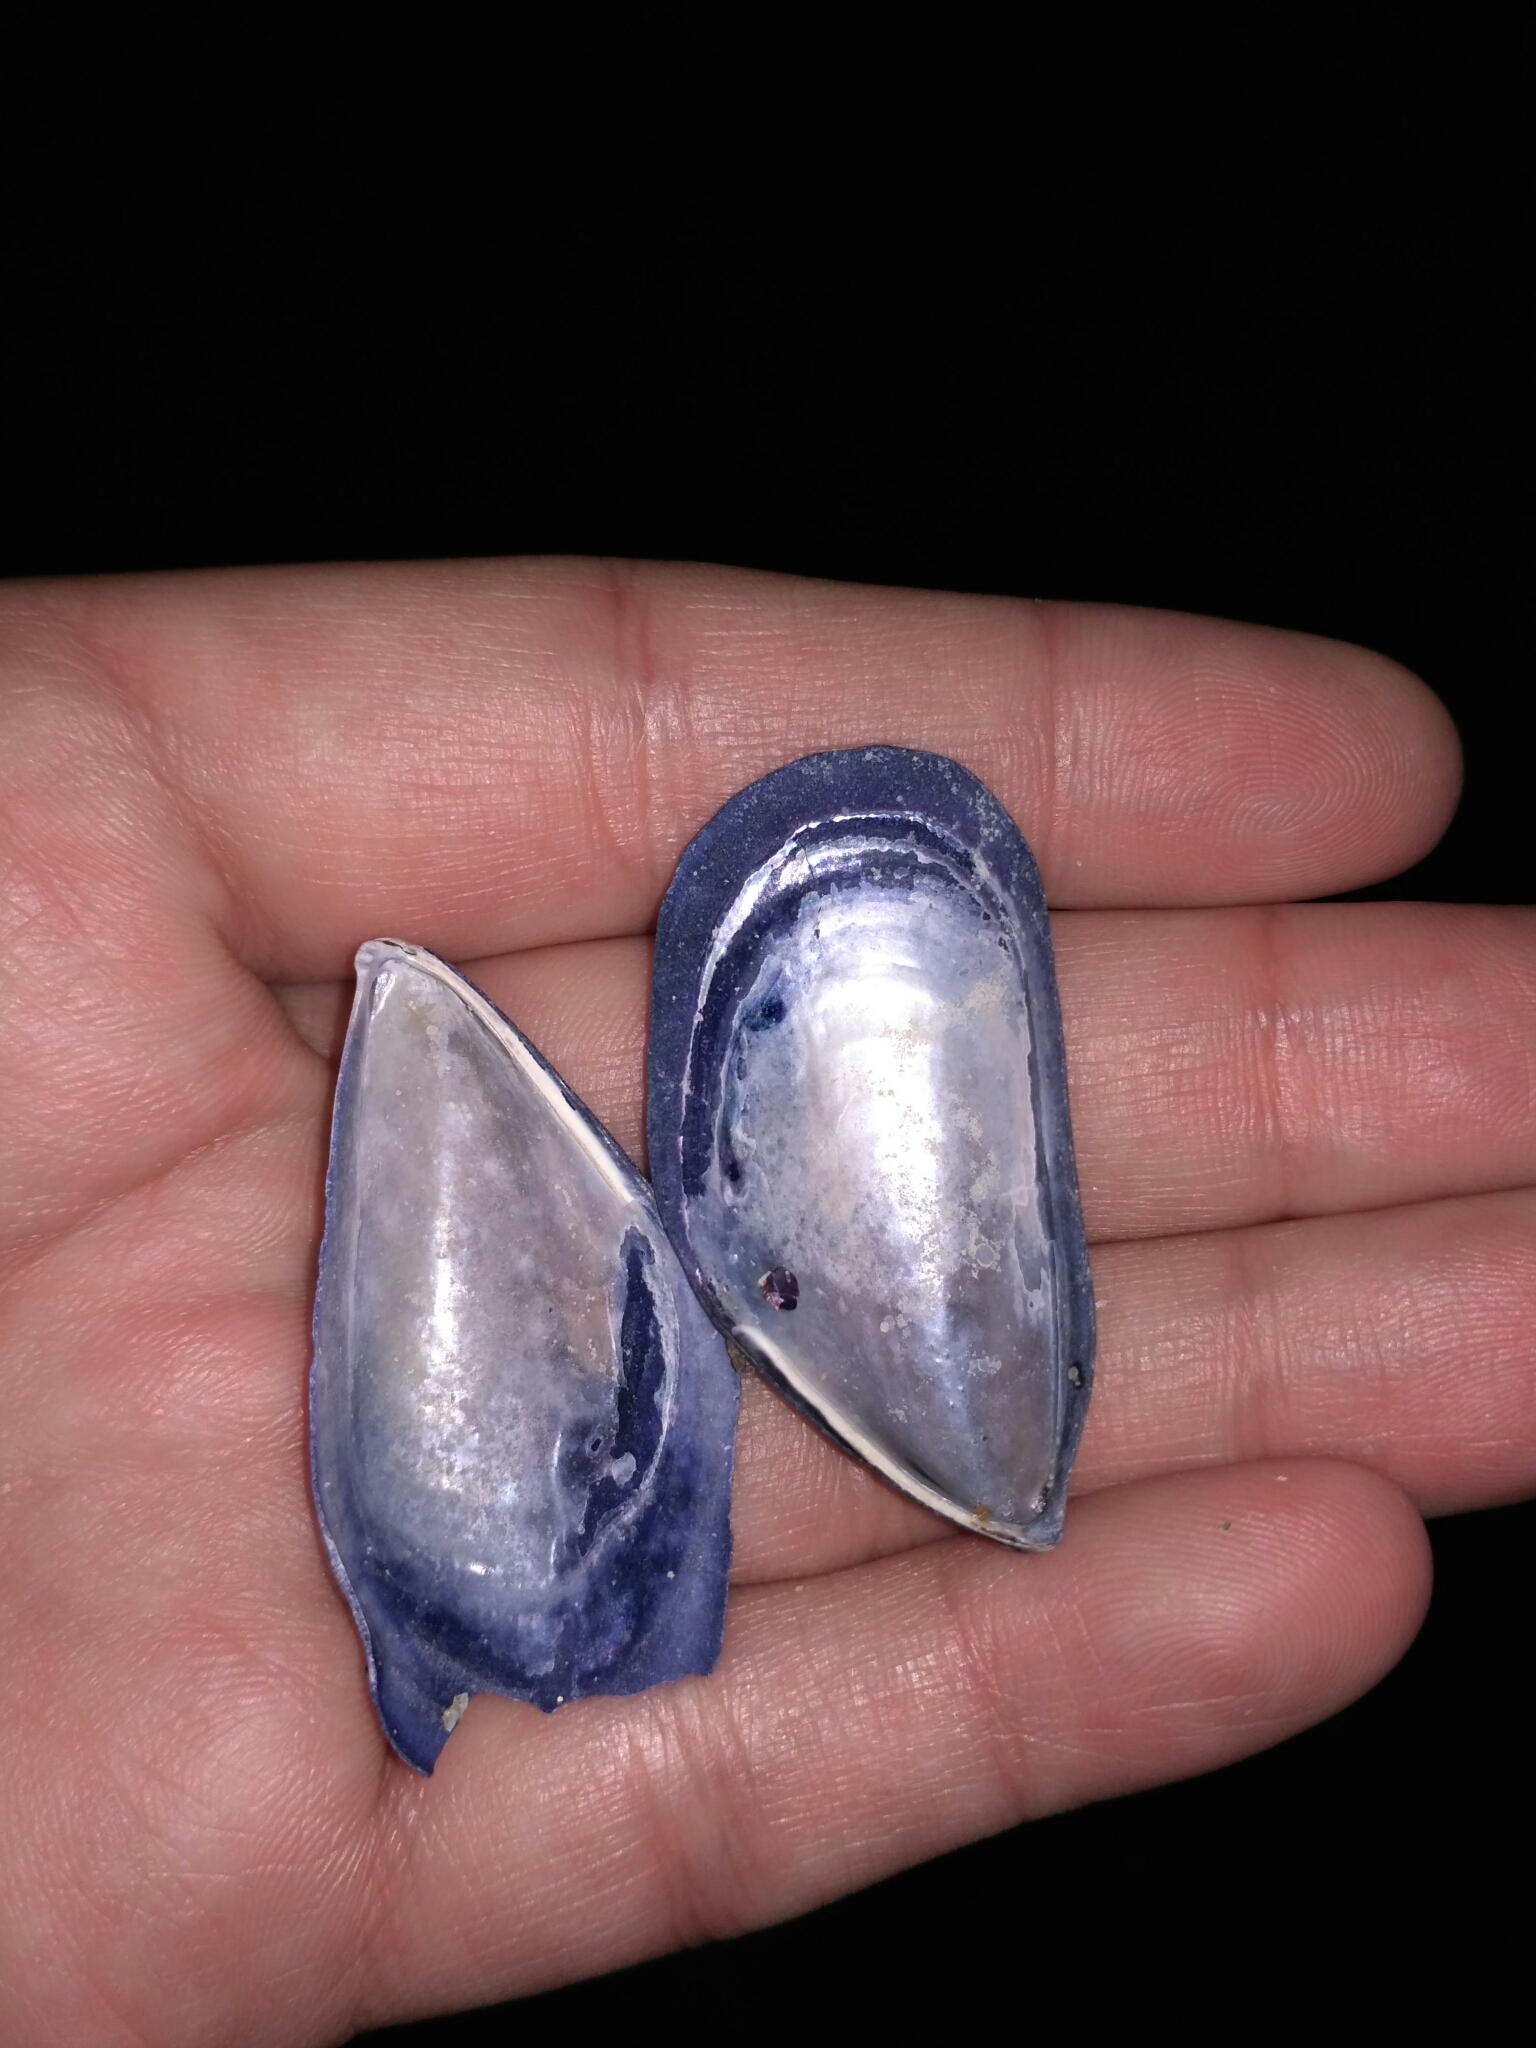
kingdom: Animalia
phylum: Mollusca
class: Bivalvia
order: Mytilida
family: Mytilidae
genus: Mytilus
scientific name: Mytilus galloprovincialis
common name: Mediterranean mussel
